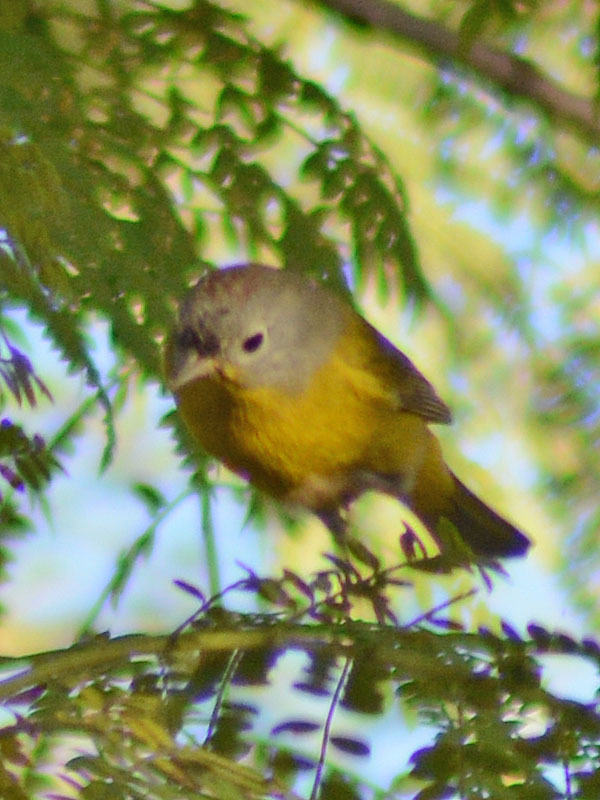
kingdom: Animalia
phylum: Chordata
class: Aves
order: Passeriformes
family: Parulidae
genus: Leiothlypis
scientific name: Leiothlypis ruficapilla
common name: Nashville warbler
